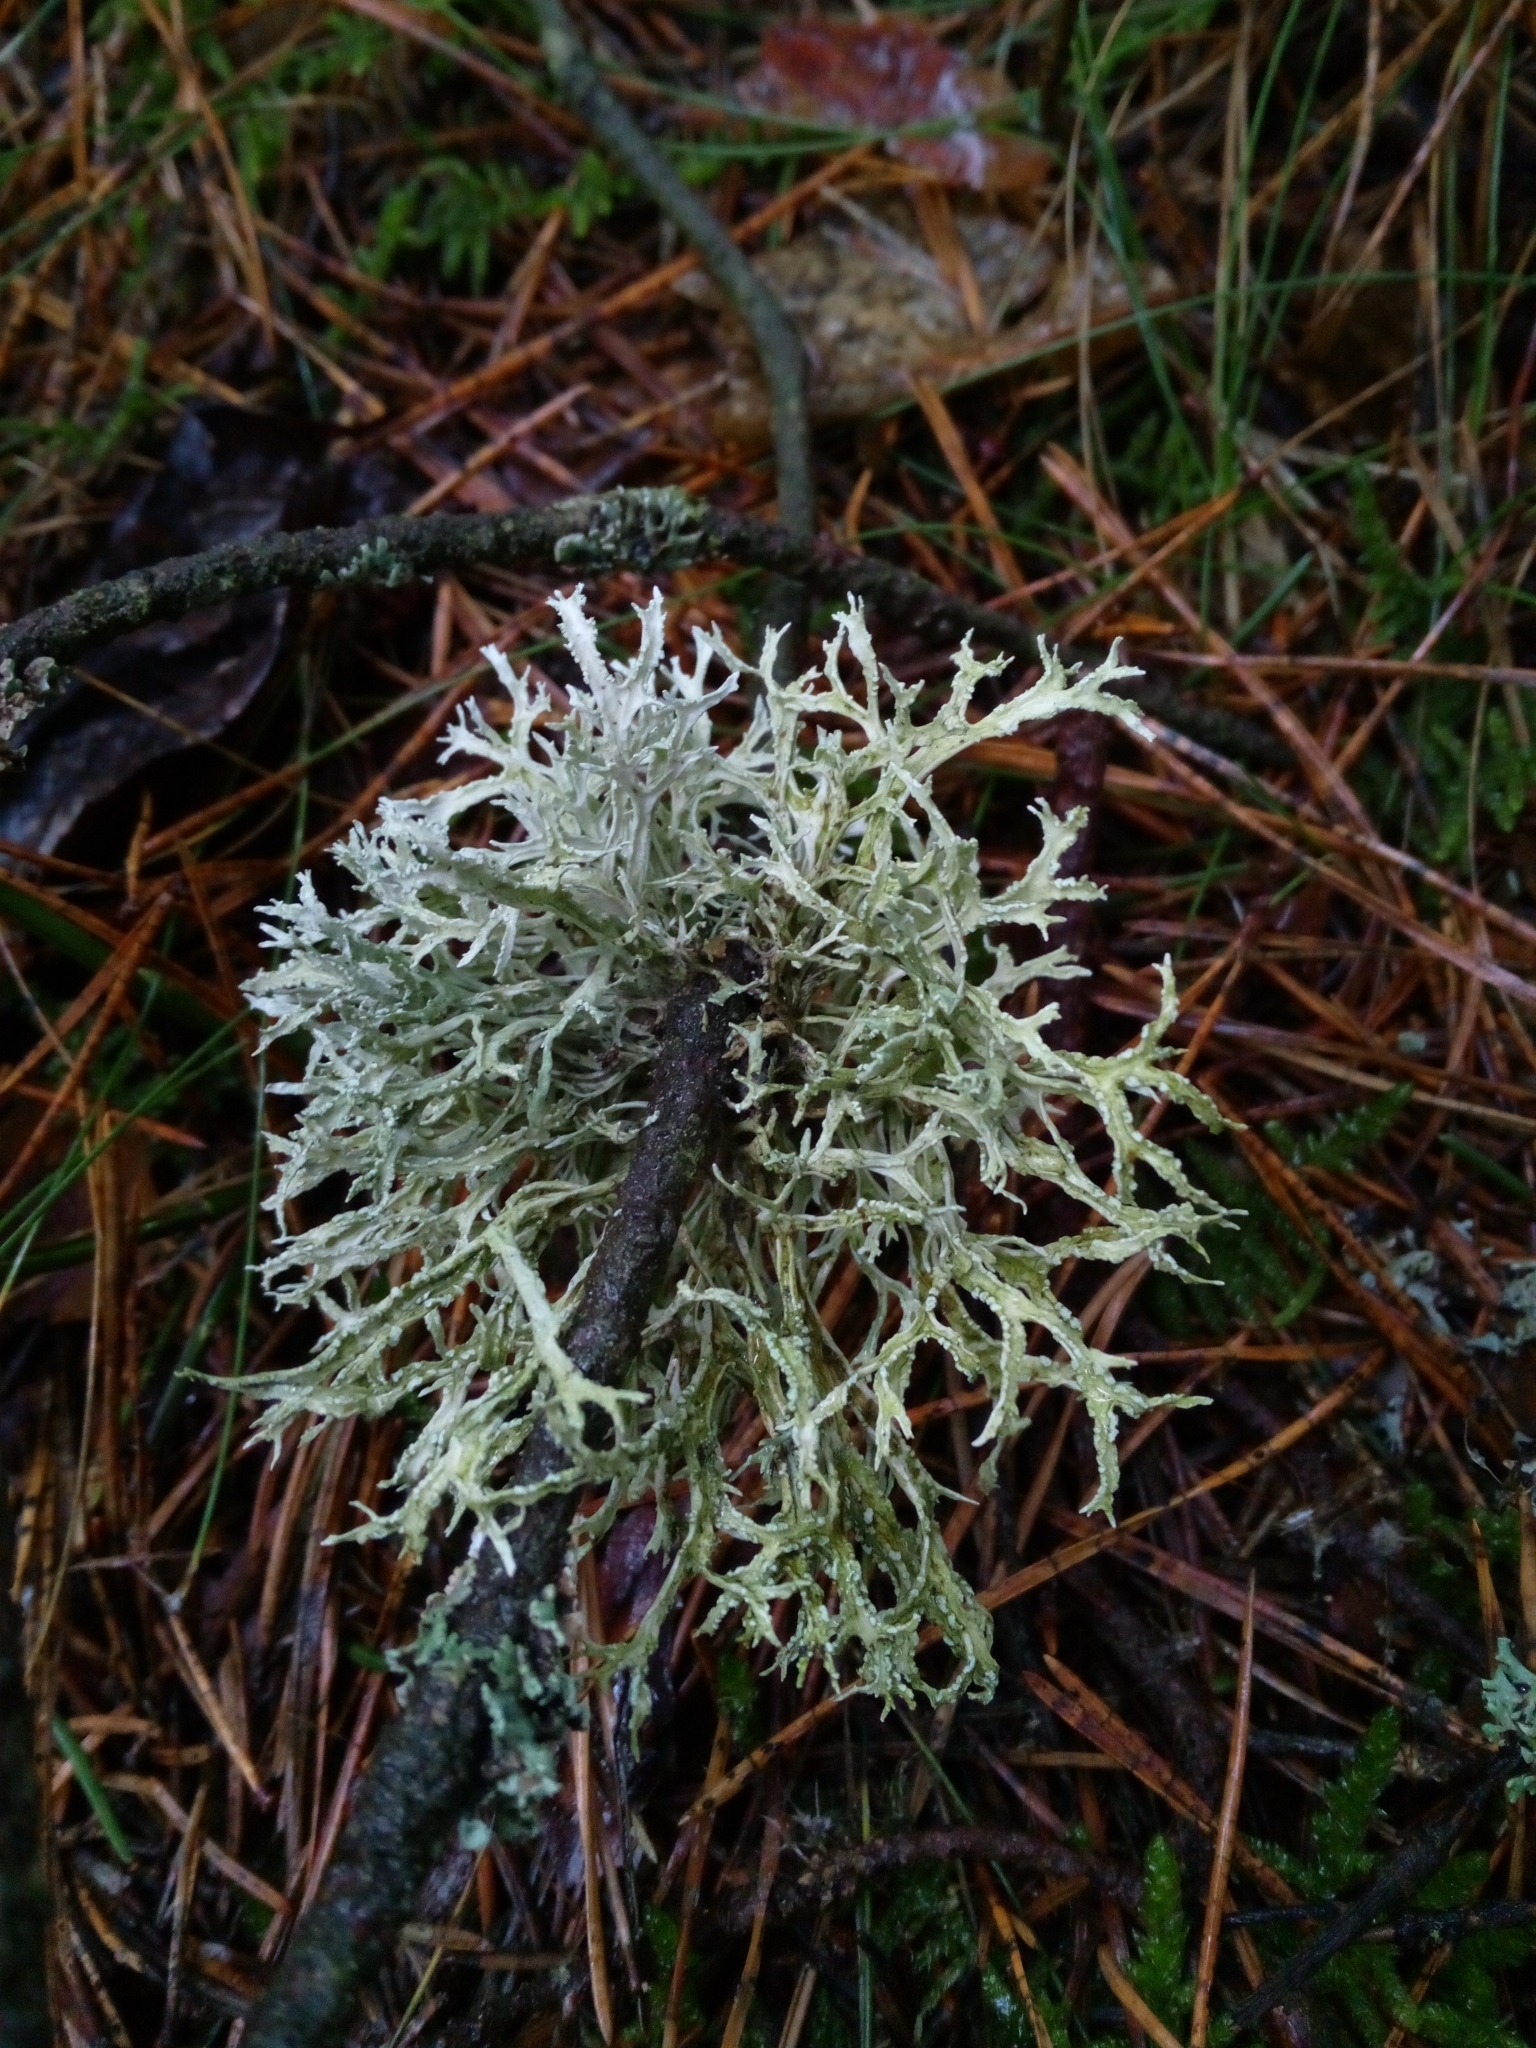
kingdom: Fungi
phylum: Ascomycota
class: Lecanoromycetes
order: Lecanorales
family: Parmeliaceae
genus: Evernia
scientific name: Evernia prunastri
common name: Oak moss
